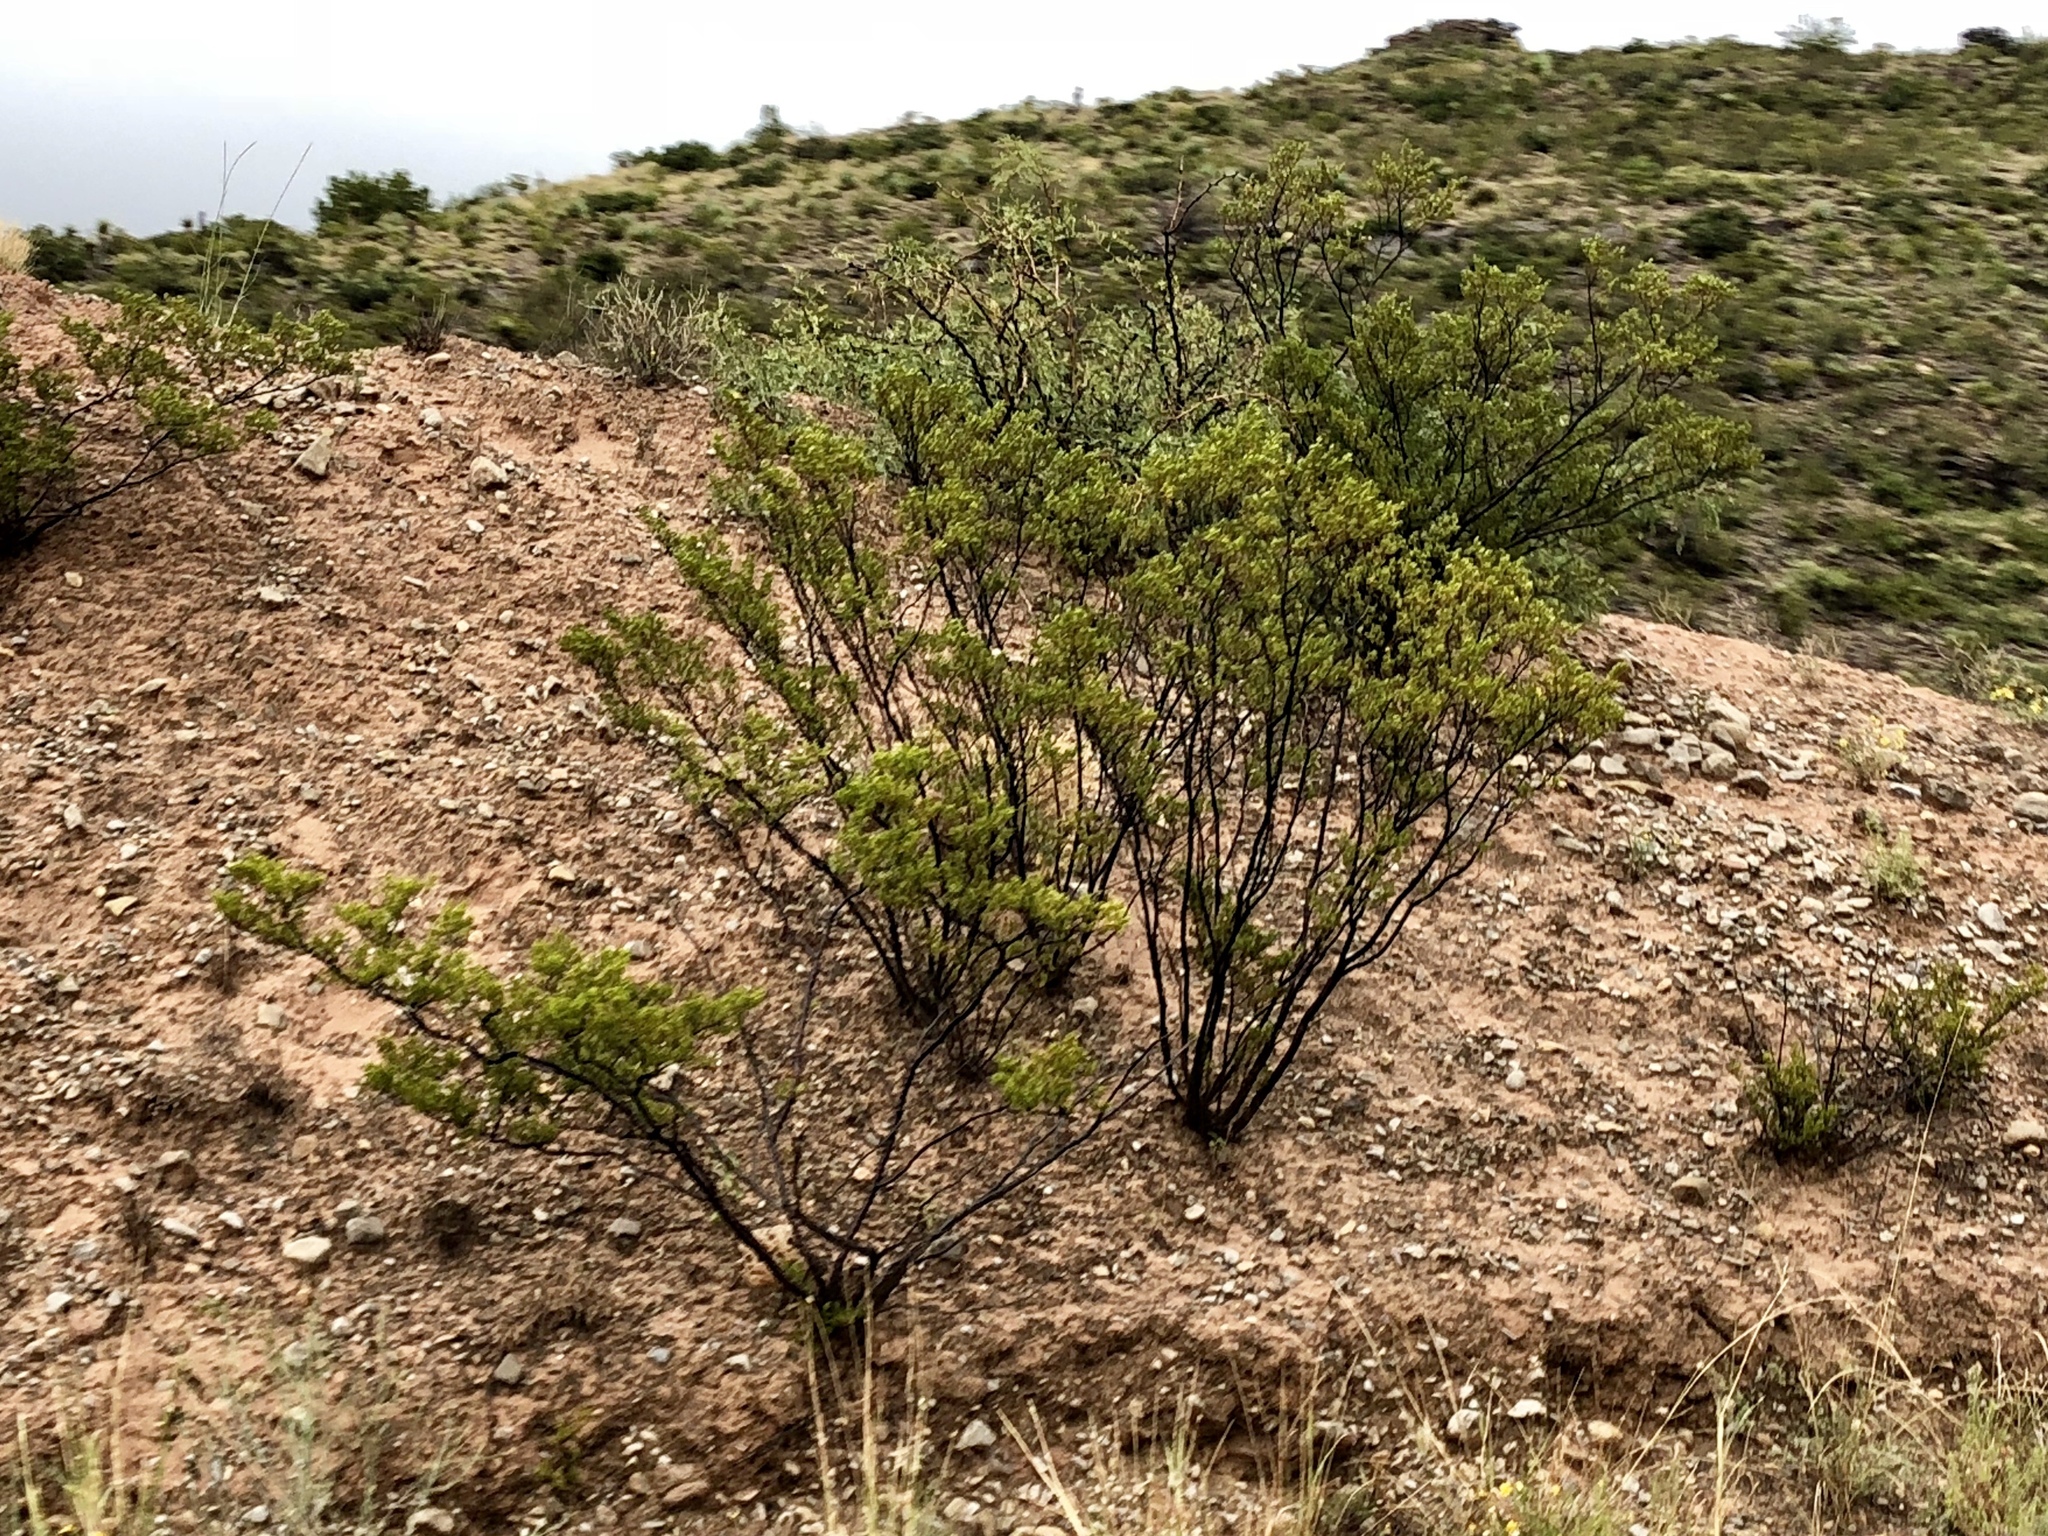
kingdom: Plantae
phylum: Tracheophyta
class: Magnoliopsida
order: Zygophyllales
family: Zygophyllaceae
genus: Larrea
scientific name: Larrea tridentata
